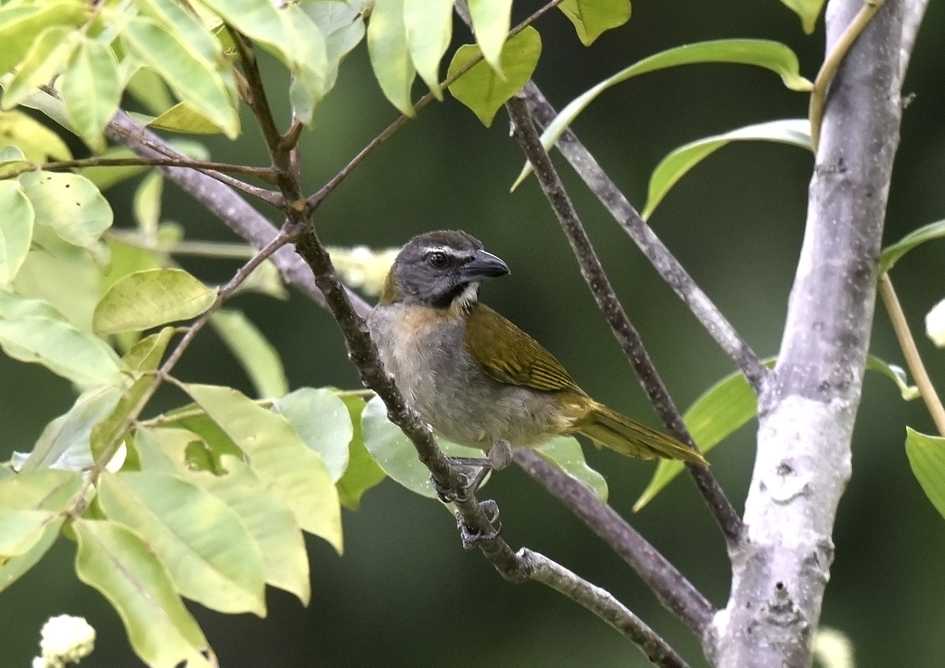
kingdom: Animalia
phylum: Chordata
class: Aves
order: Passeriformes
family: Thraupidae
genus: Saltator
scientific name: Saltator maximus
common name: Buff-throated saltator
